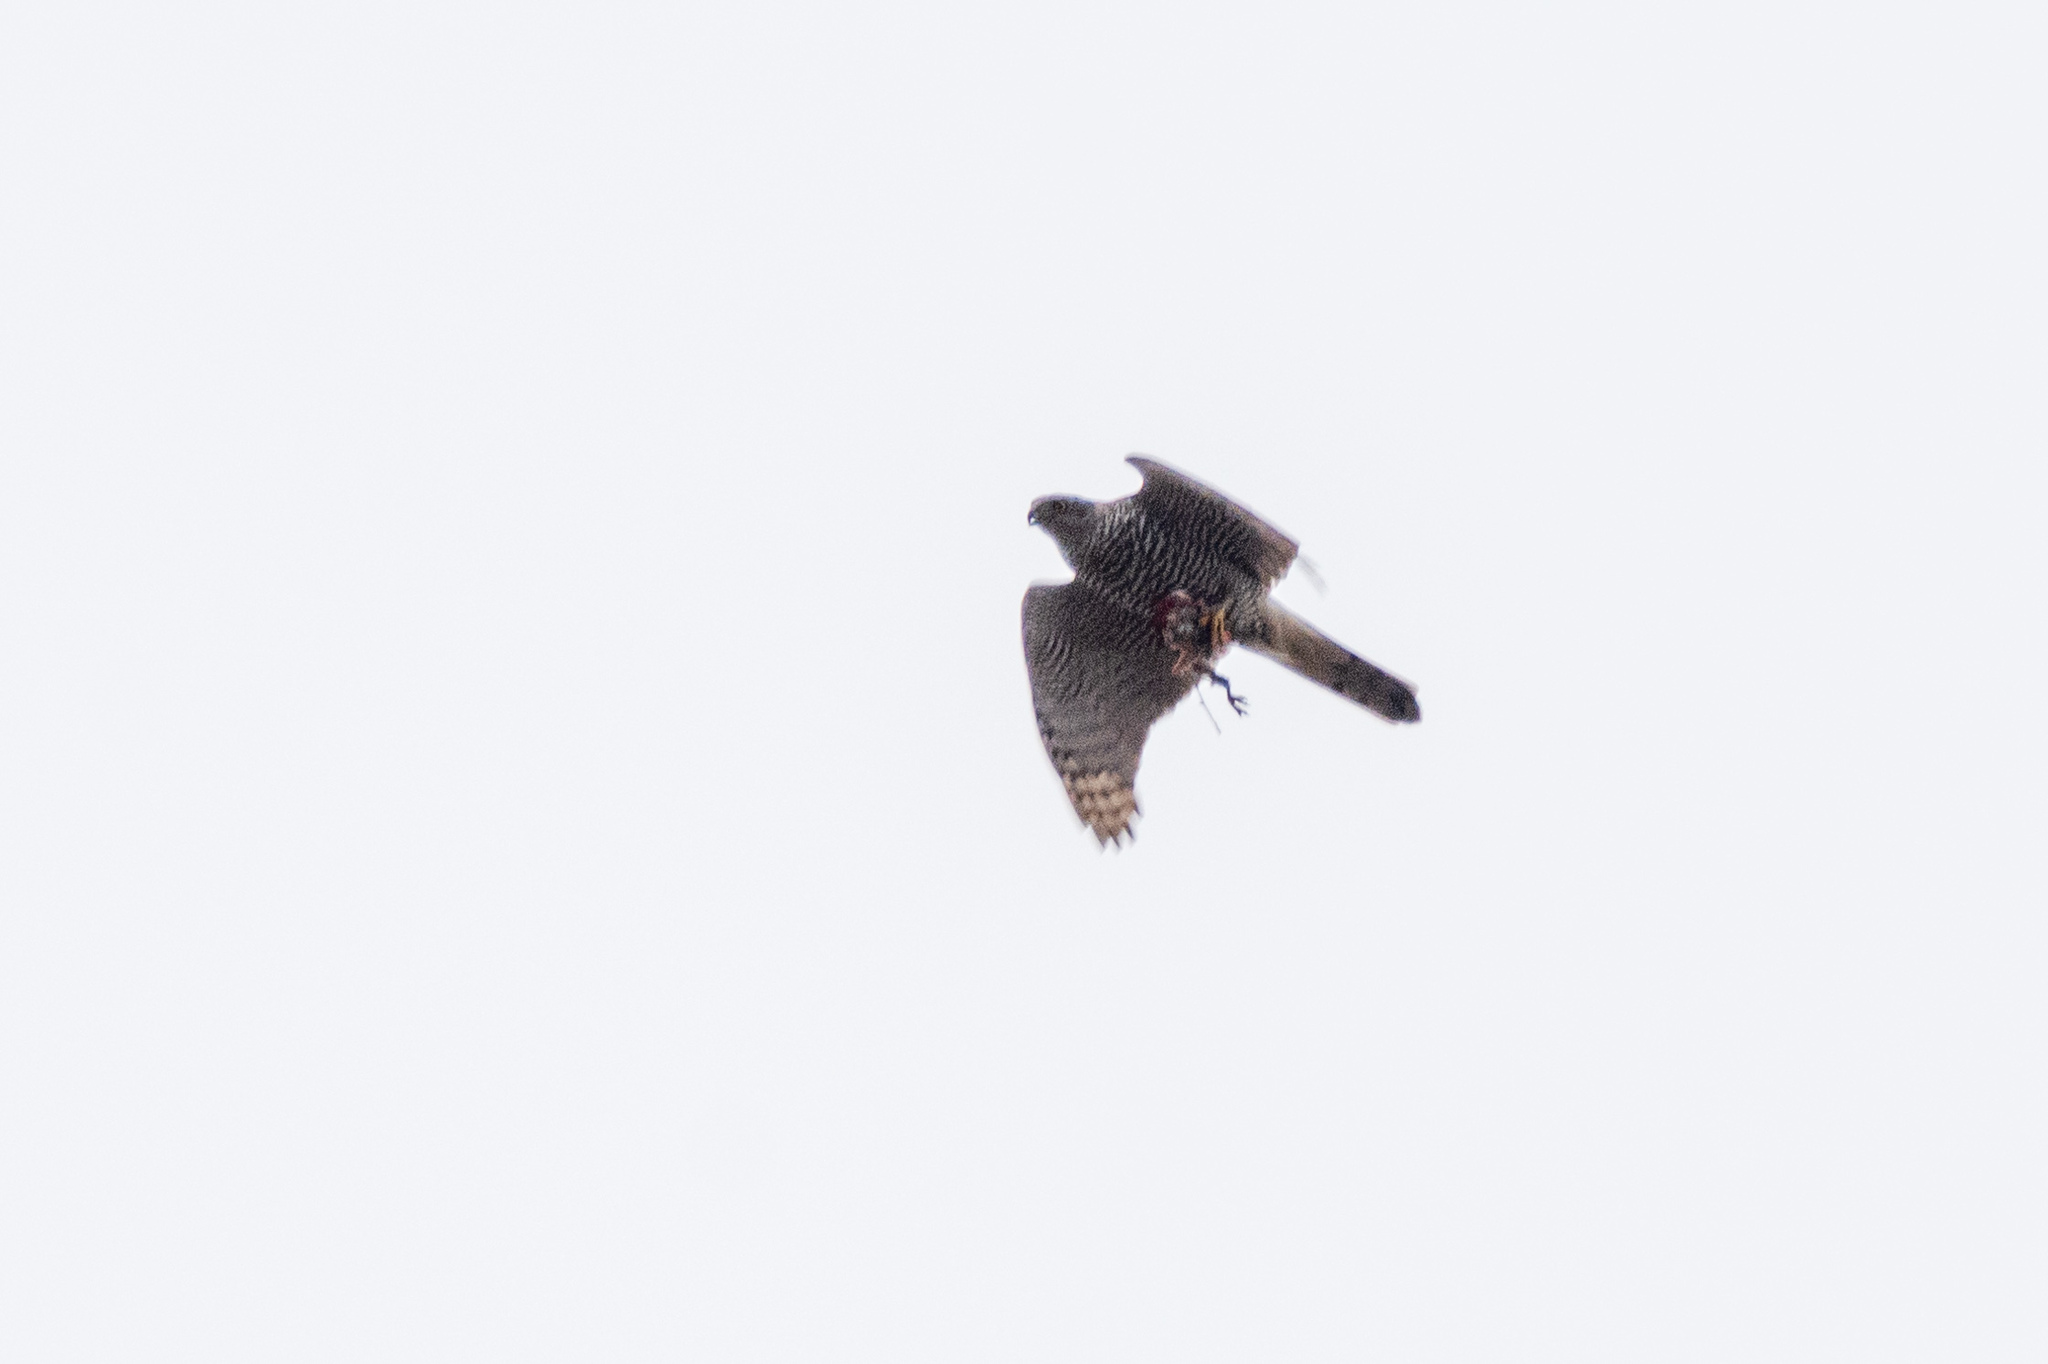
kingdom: Animalia
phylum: Chordata
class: Aves
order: Accipitriformes
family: Accipitridae
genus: Accipiter
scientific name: Accipiter nisus
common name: Eurasian sparrowhawk
